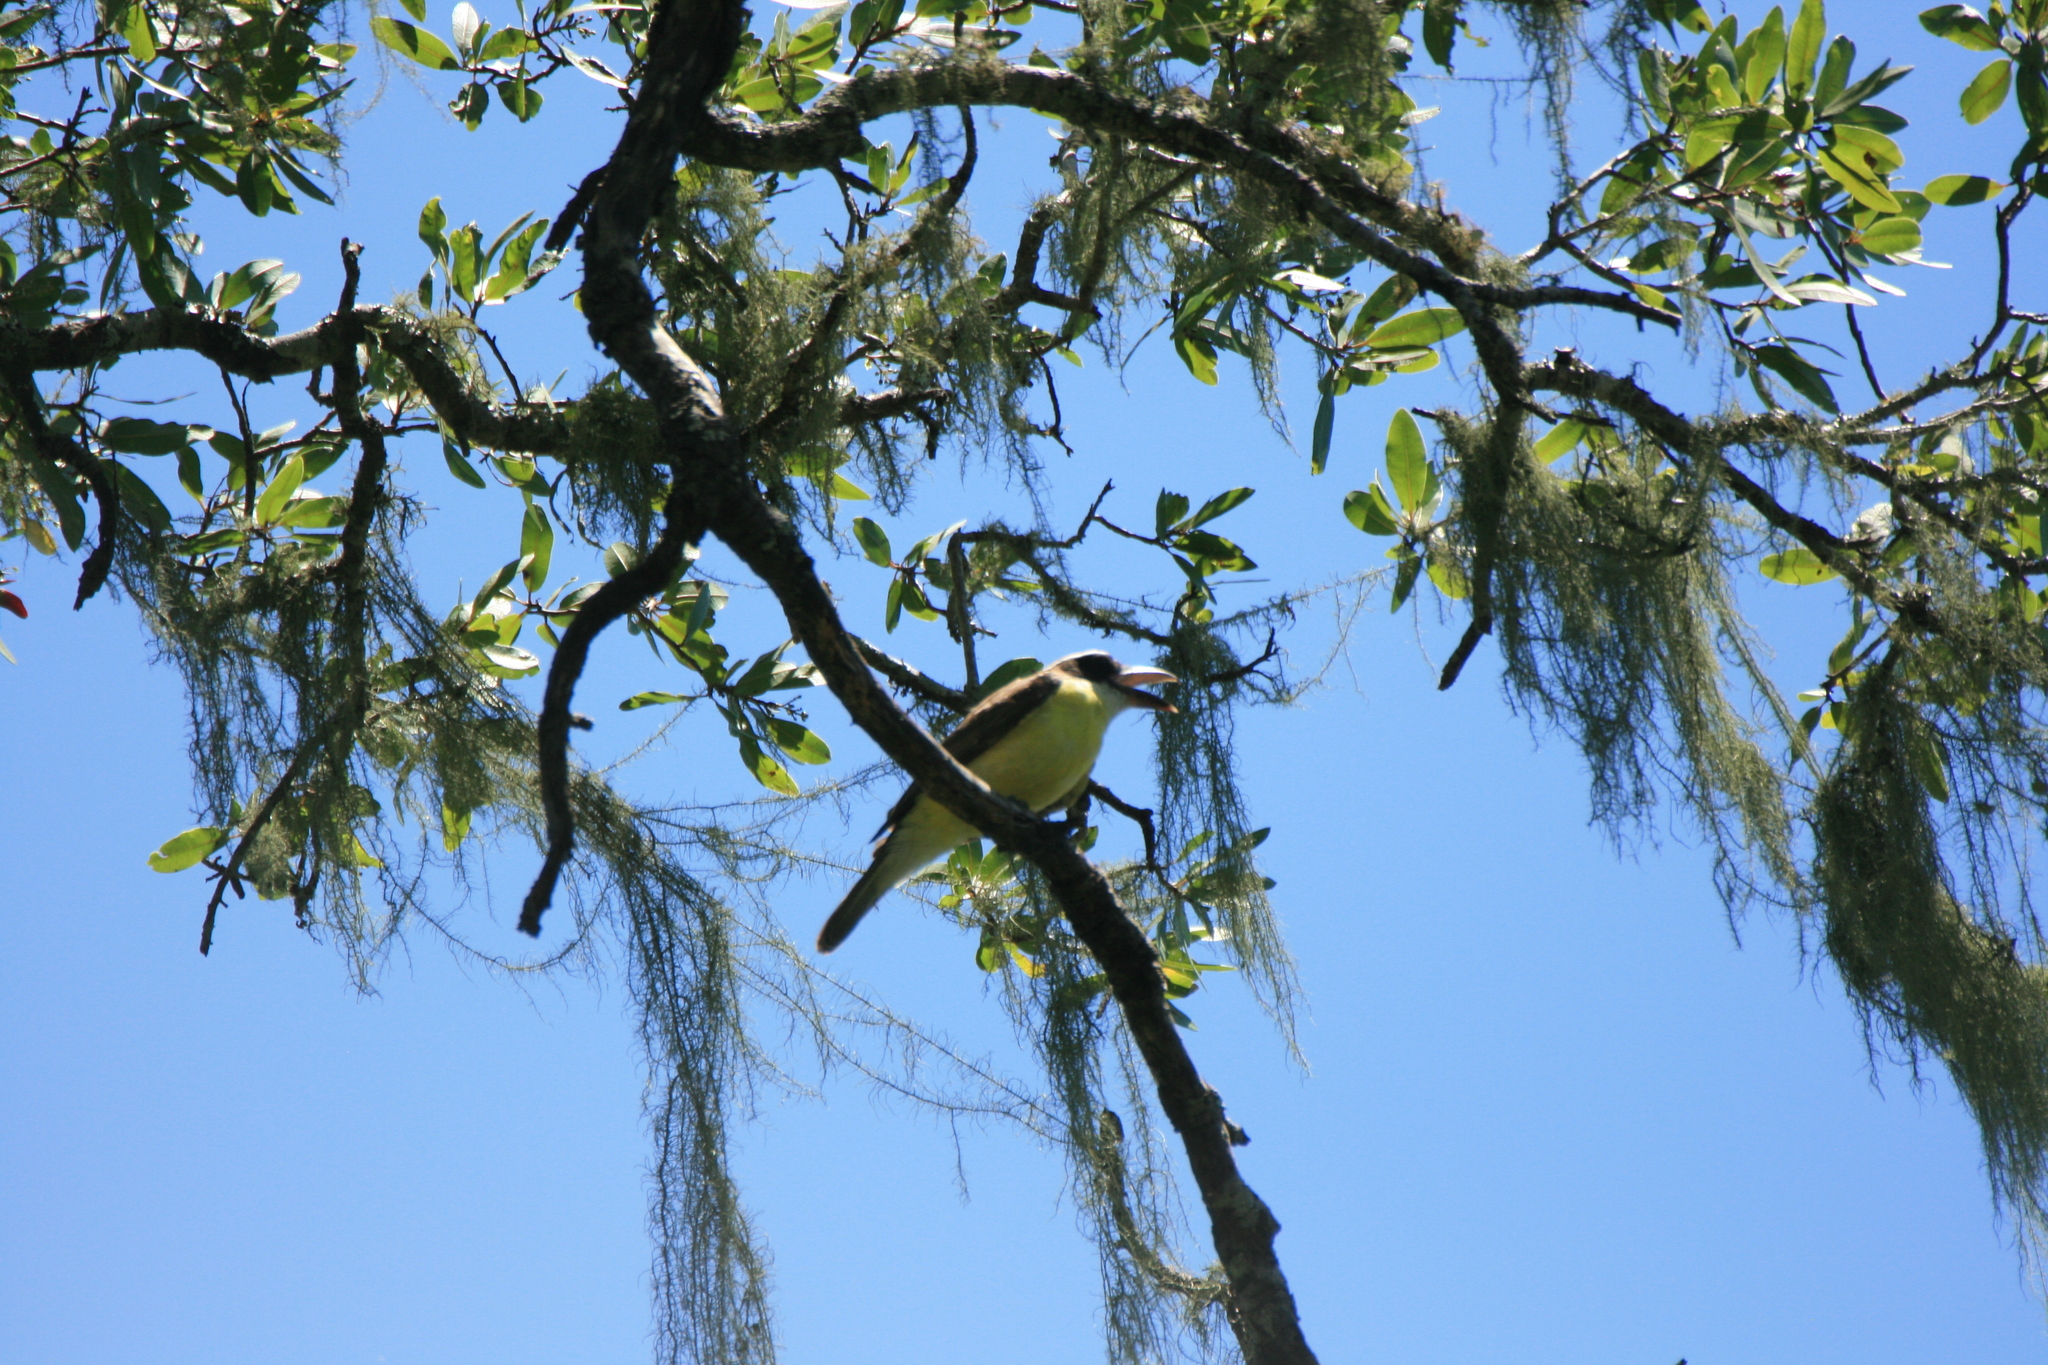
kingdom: Animalia
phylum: Chordata
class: Aves
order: Passeriformes
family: Tyrannidae
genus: Megarynchus
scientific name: Megarynchus pitangua
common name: Boat-billed flycatcher
